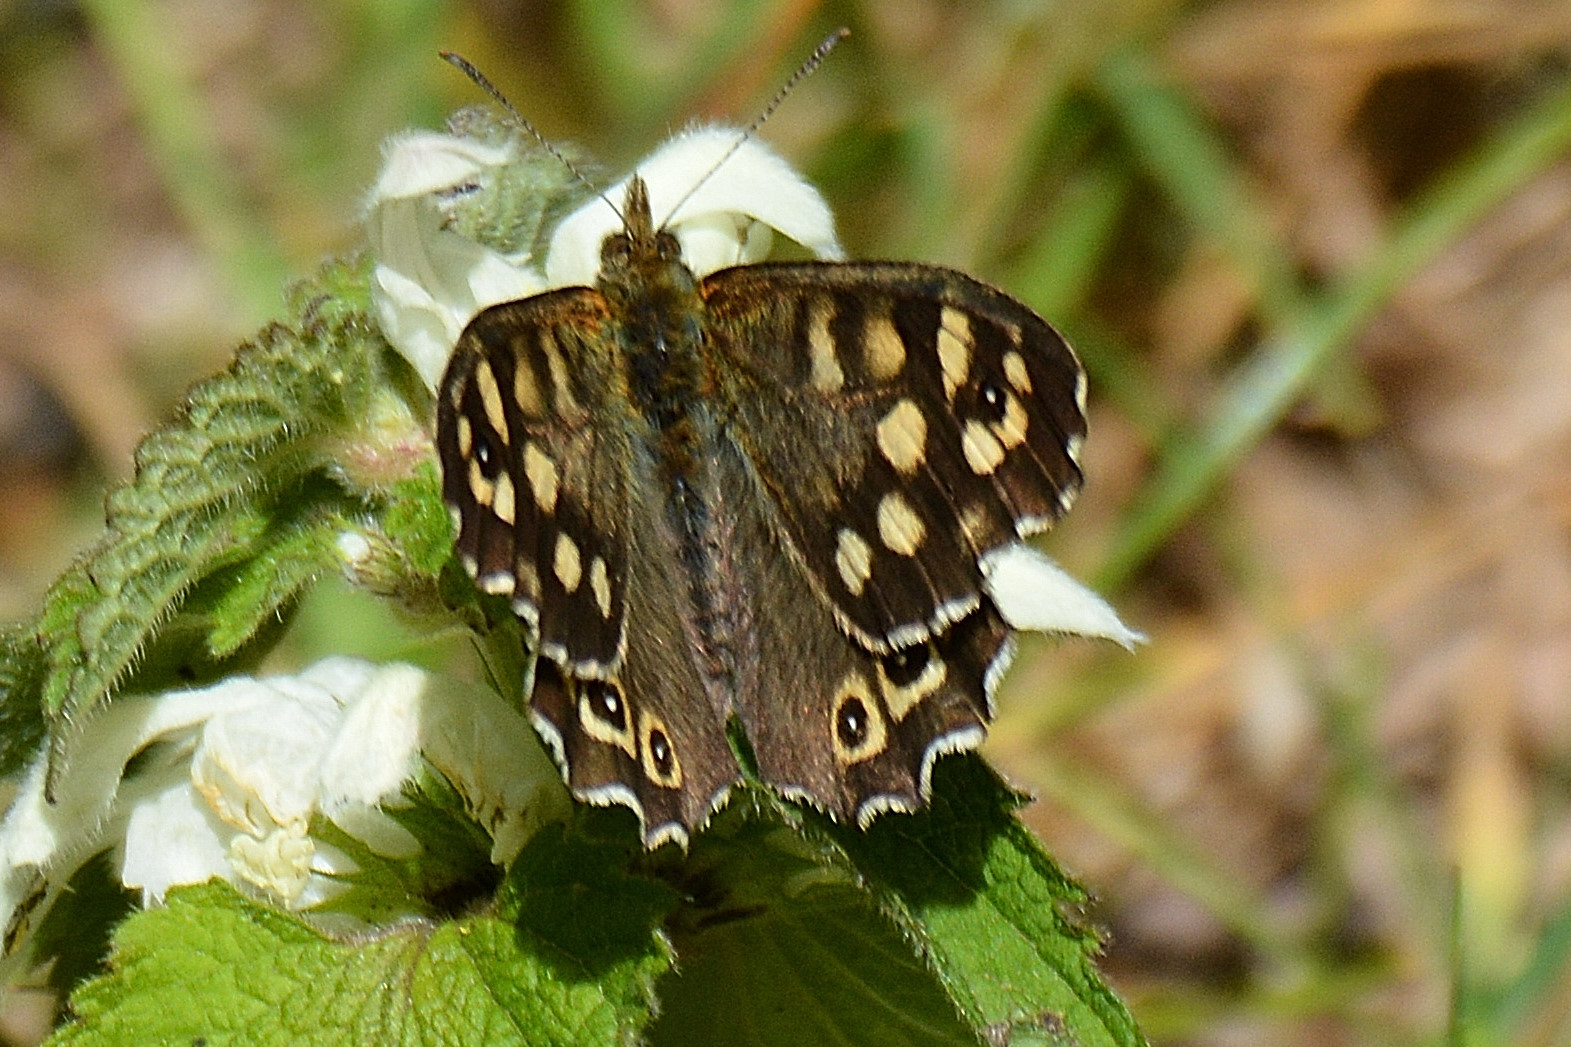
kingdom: Animalia
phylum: Arthropoda
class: Insecta
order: Lepidoptera
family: Nymphalidae
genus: Pararge
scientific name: Pararge aegeria
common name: Speckled wood
